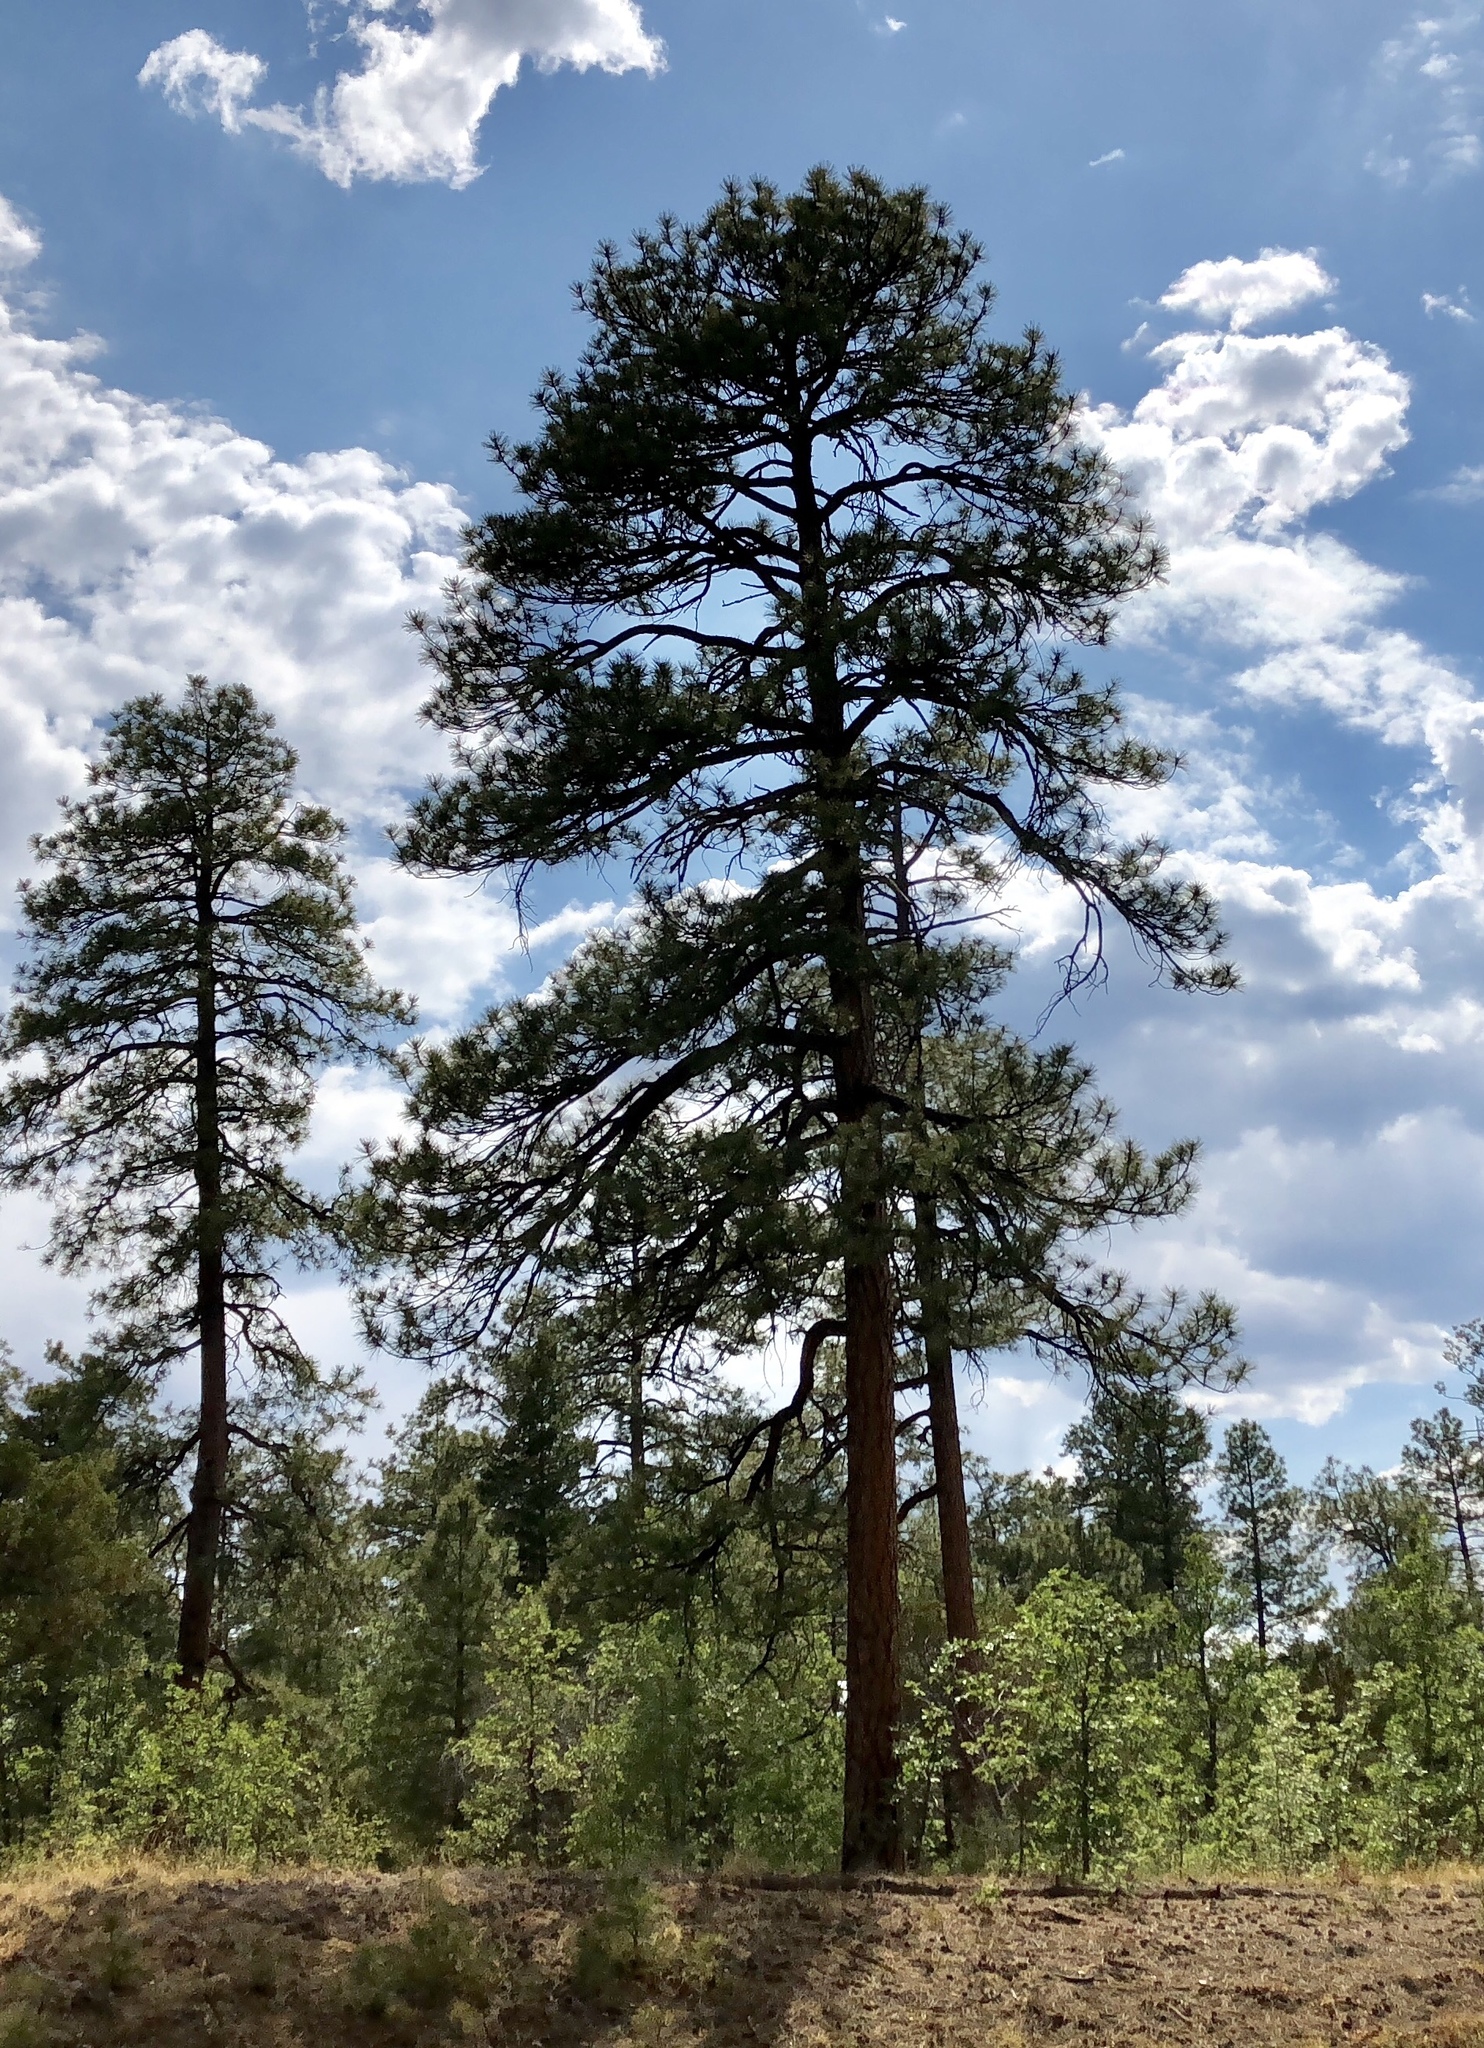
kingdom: Plantae
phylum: Tracheophyta
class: Pinopsida
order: Pinales
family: Pinaceae
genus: Pinus
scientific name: Pinus ponderosa
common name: Western yellow-pine
